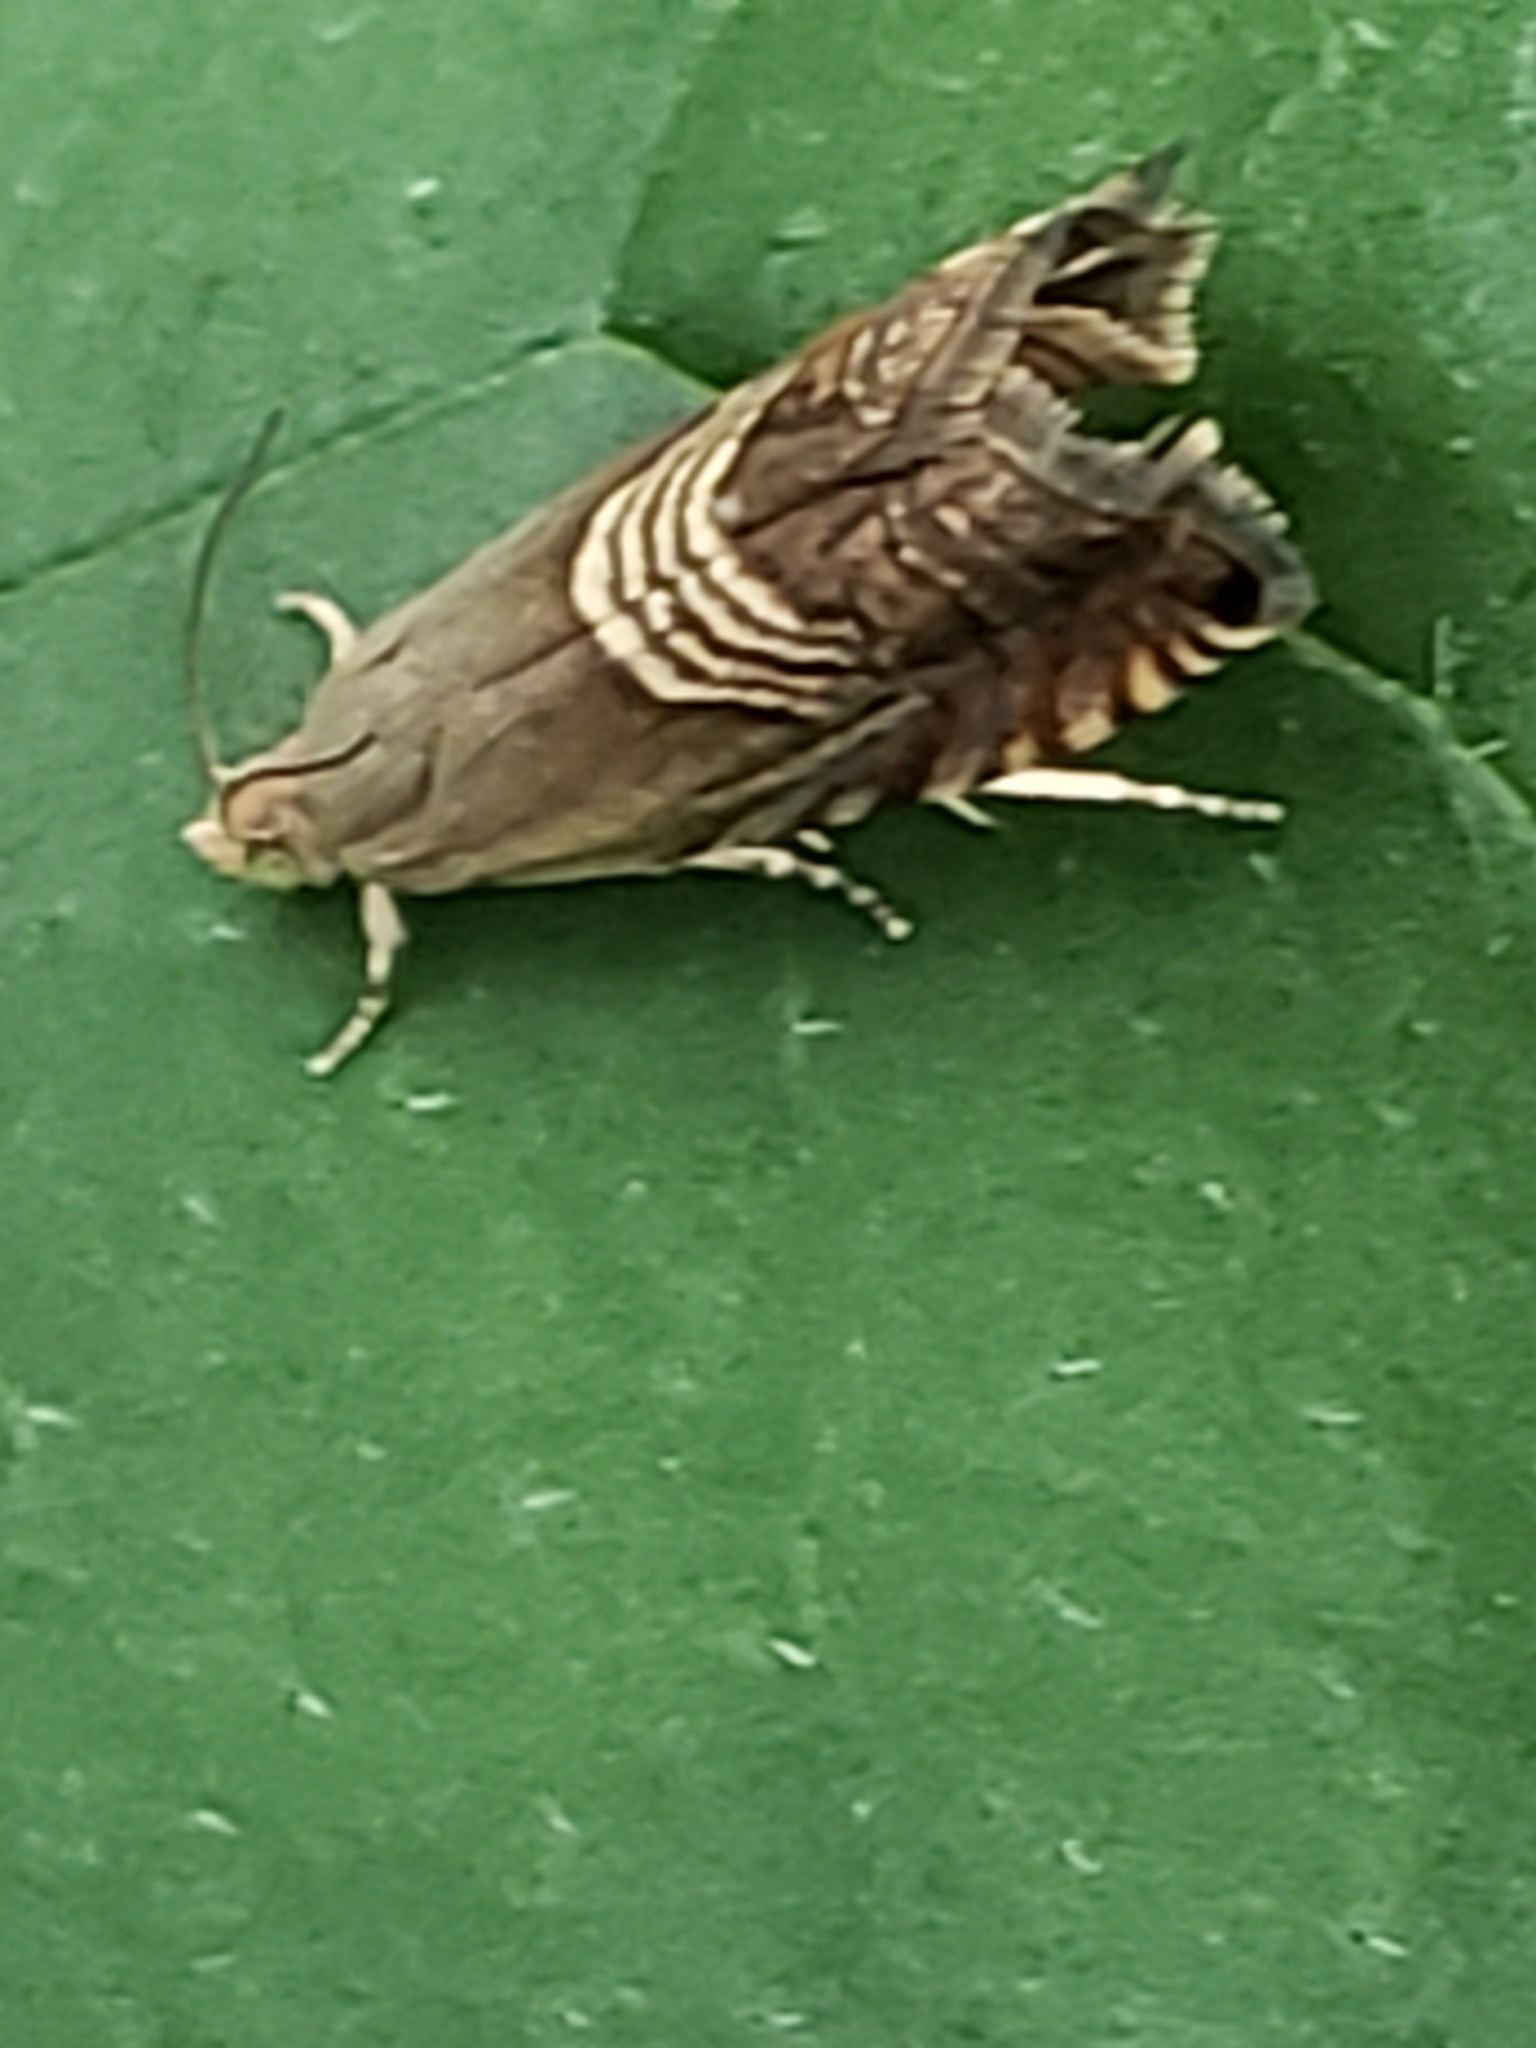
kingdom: Animalia
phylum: Arthropoda
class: Insecta
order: Lepidoptera
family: Tortricidae
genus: Grapholita
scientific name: Grapholita tristrigana
